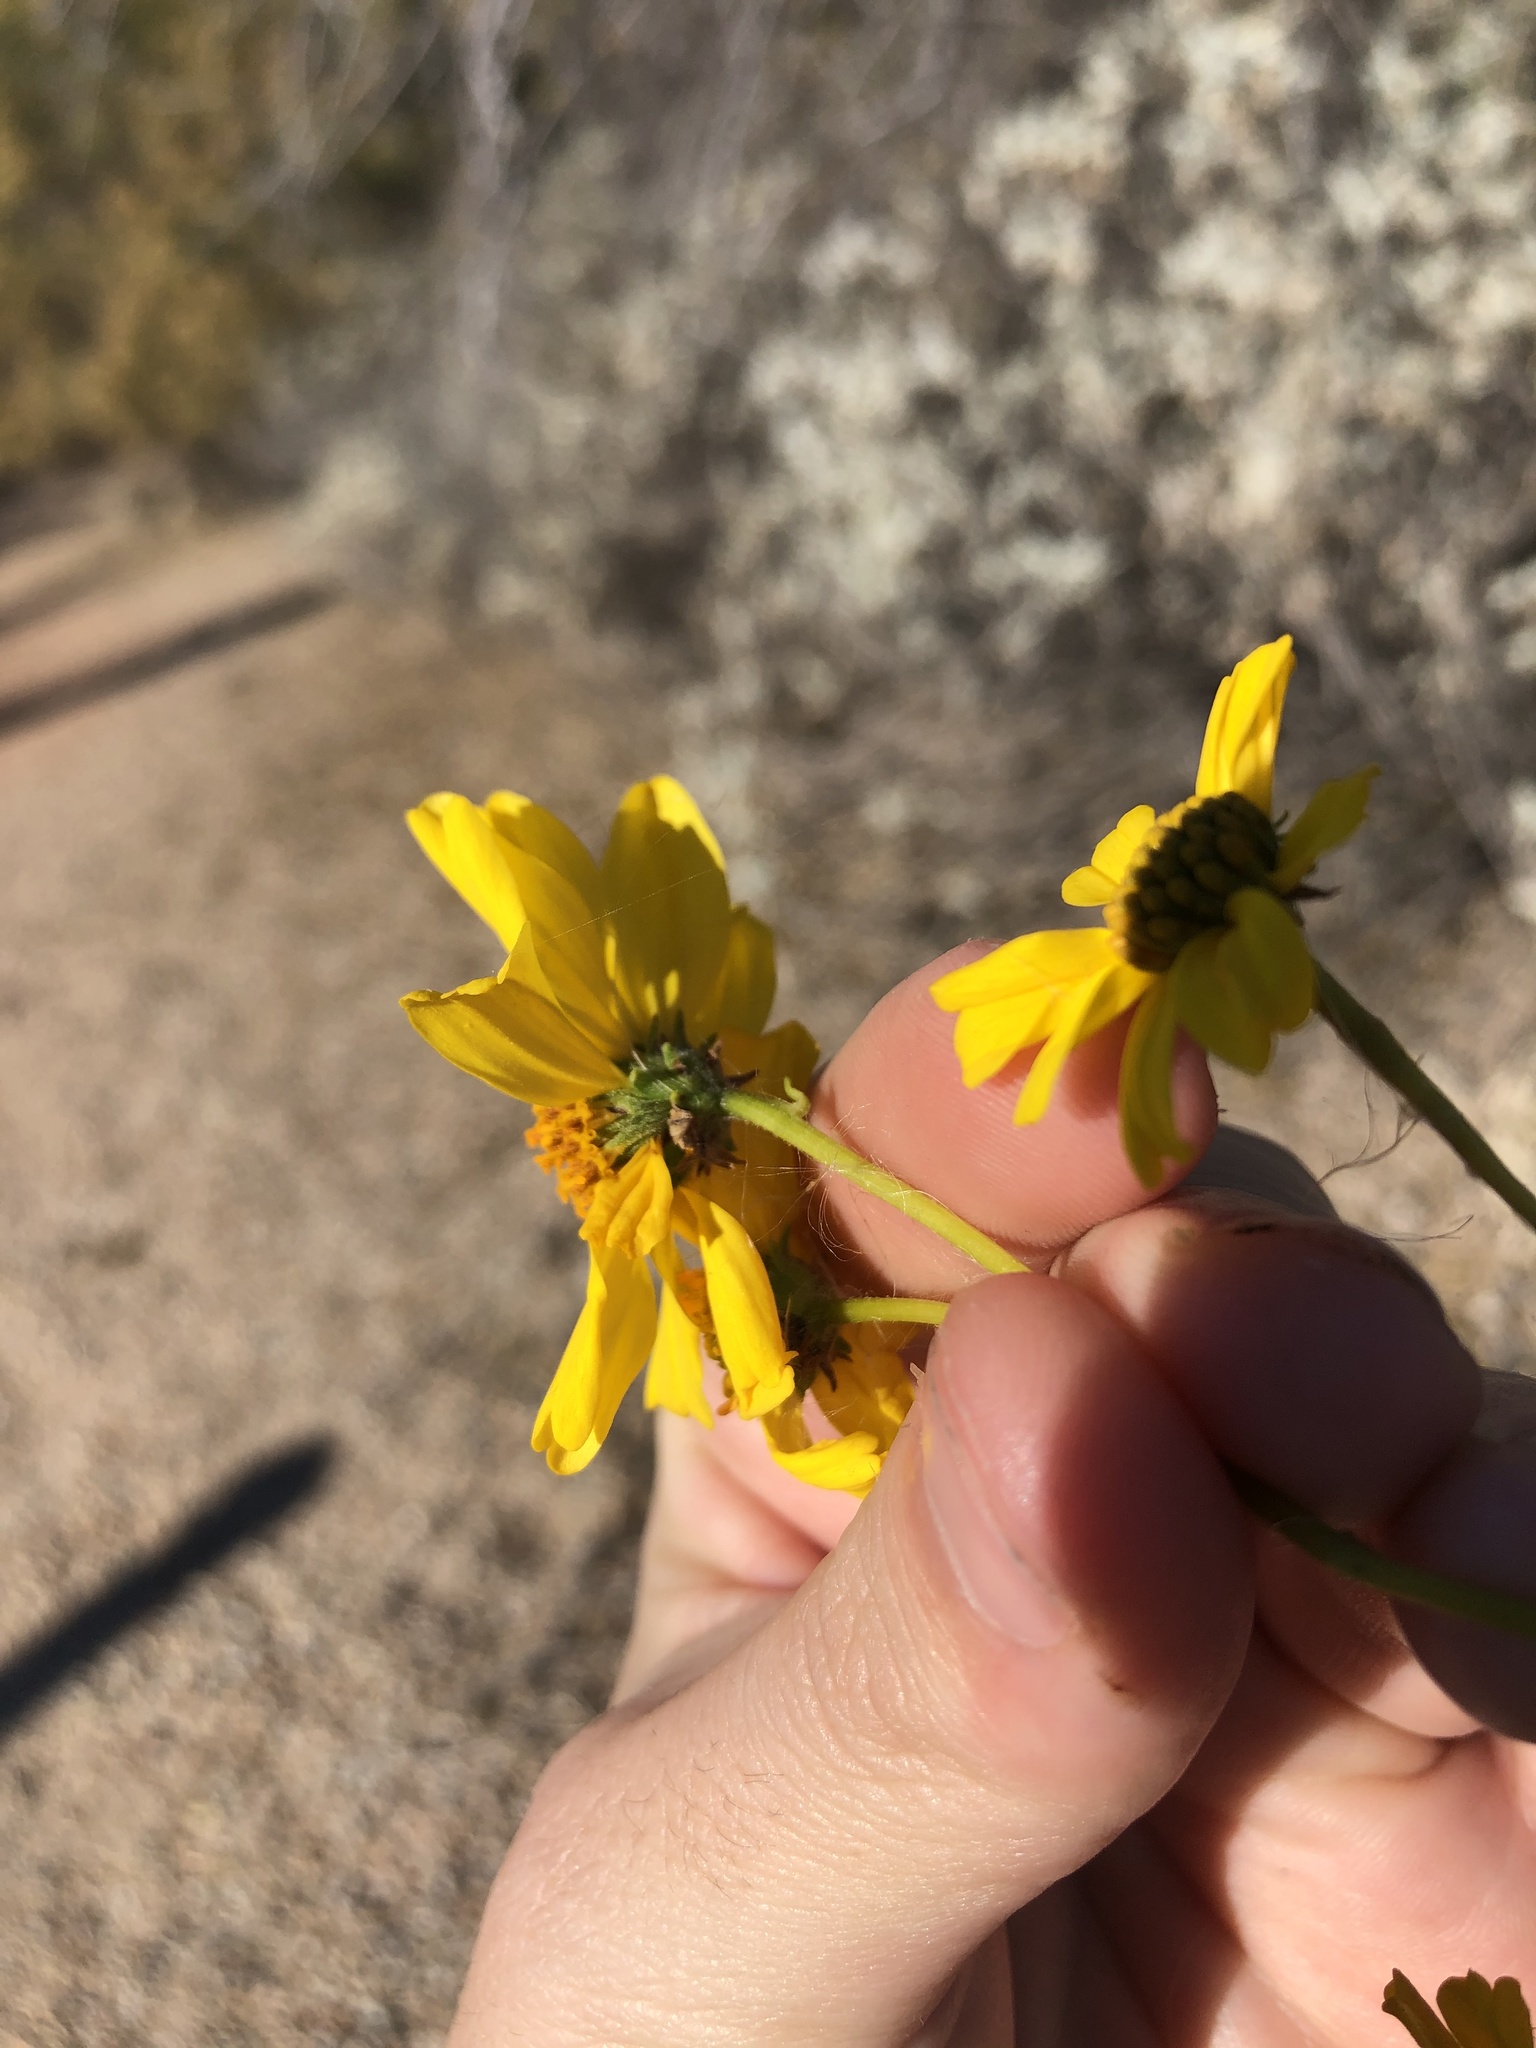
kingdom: Plantae
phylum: Tracheophyta
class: Magnoliopsida
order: Asterales
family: Asteraceae
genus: Encelia
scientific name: Encelia farinosa
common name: Brittlebush
